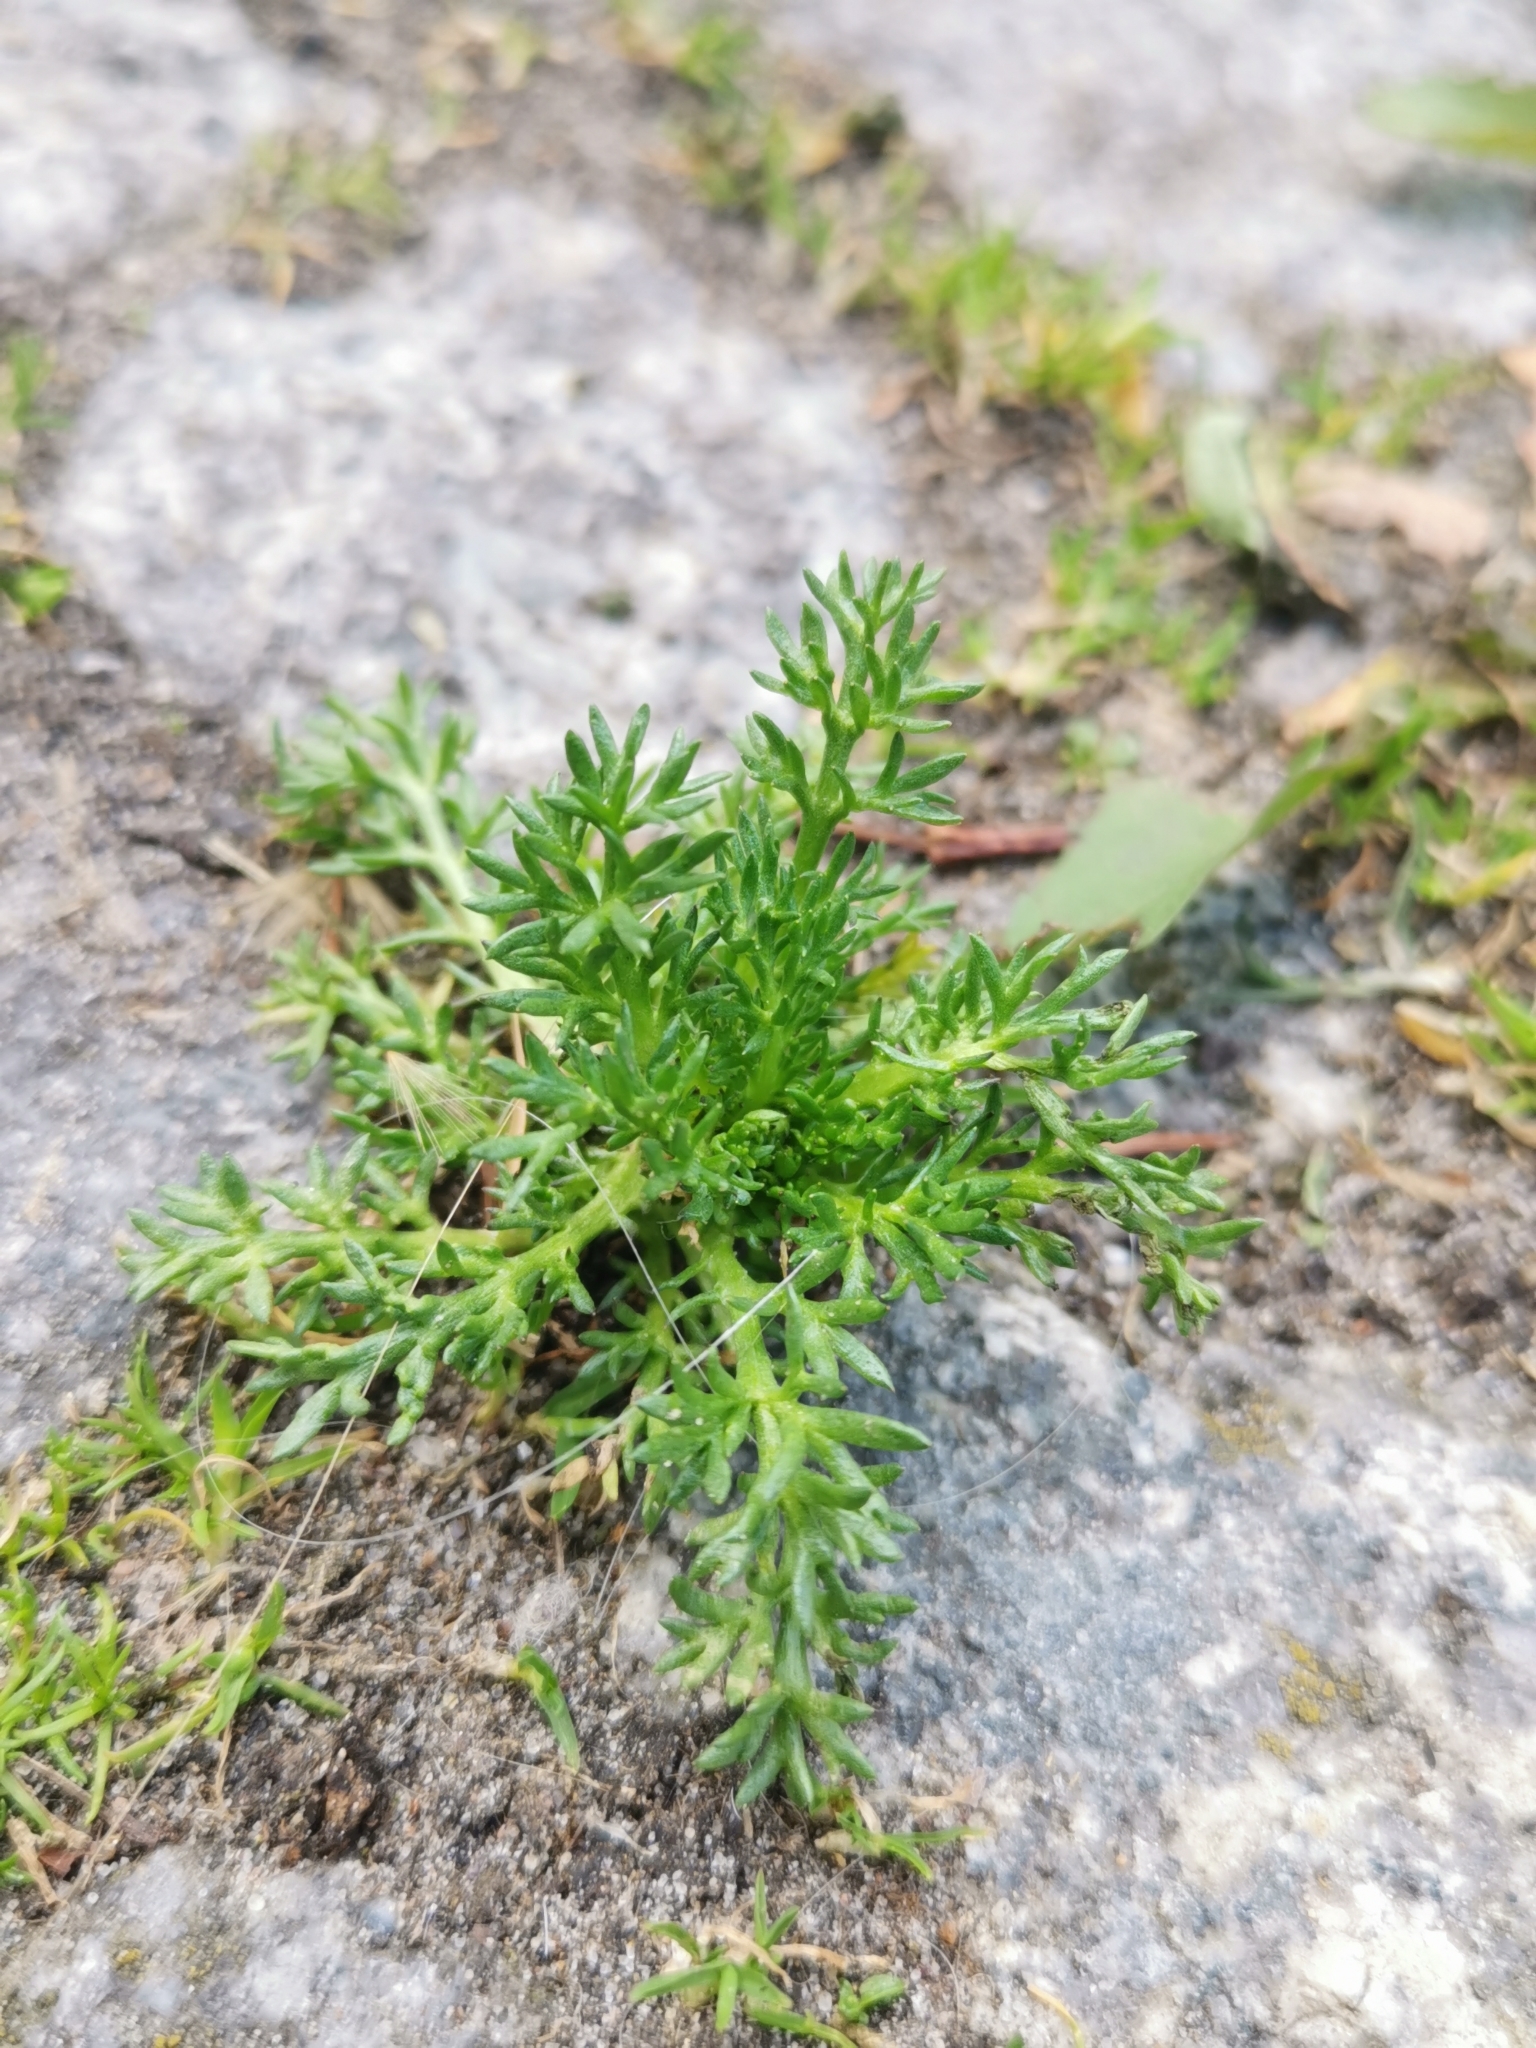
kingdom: Plantae
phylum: Tracheophyta
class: Magnoliopsida
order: Asterales
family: Asteraceae
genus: Matricaria
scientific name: Matricaria discoidea
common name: Disc mayweed
